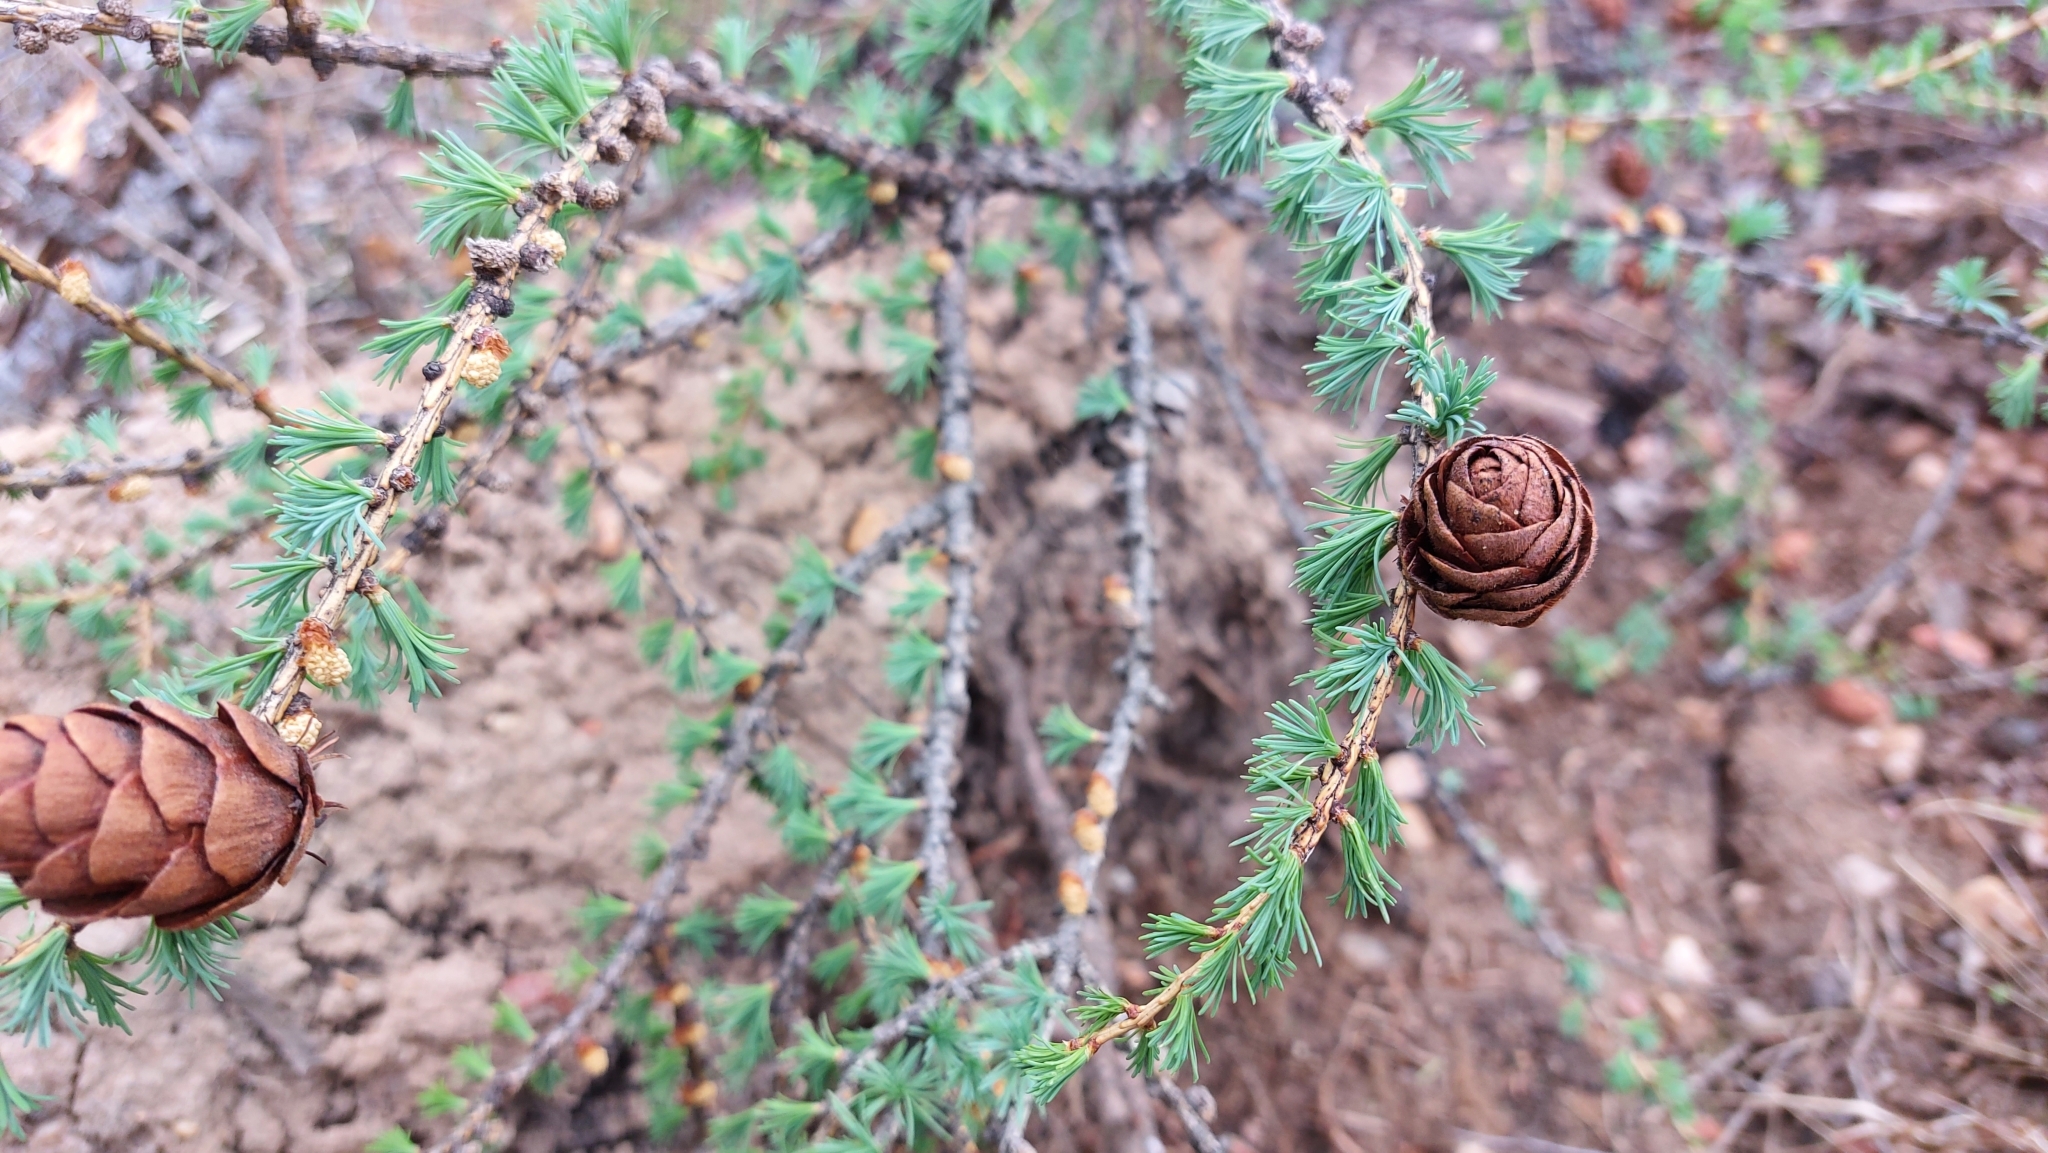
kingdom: Plantae
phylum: Tracheophyta
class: Pinopsida
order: Pinales
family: Pinaceae
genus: Larix
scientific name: Larix sibirica
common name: Siberian larch
